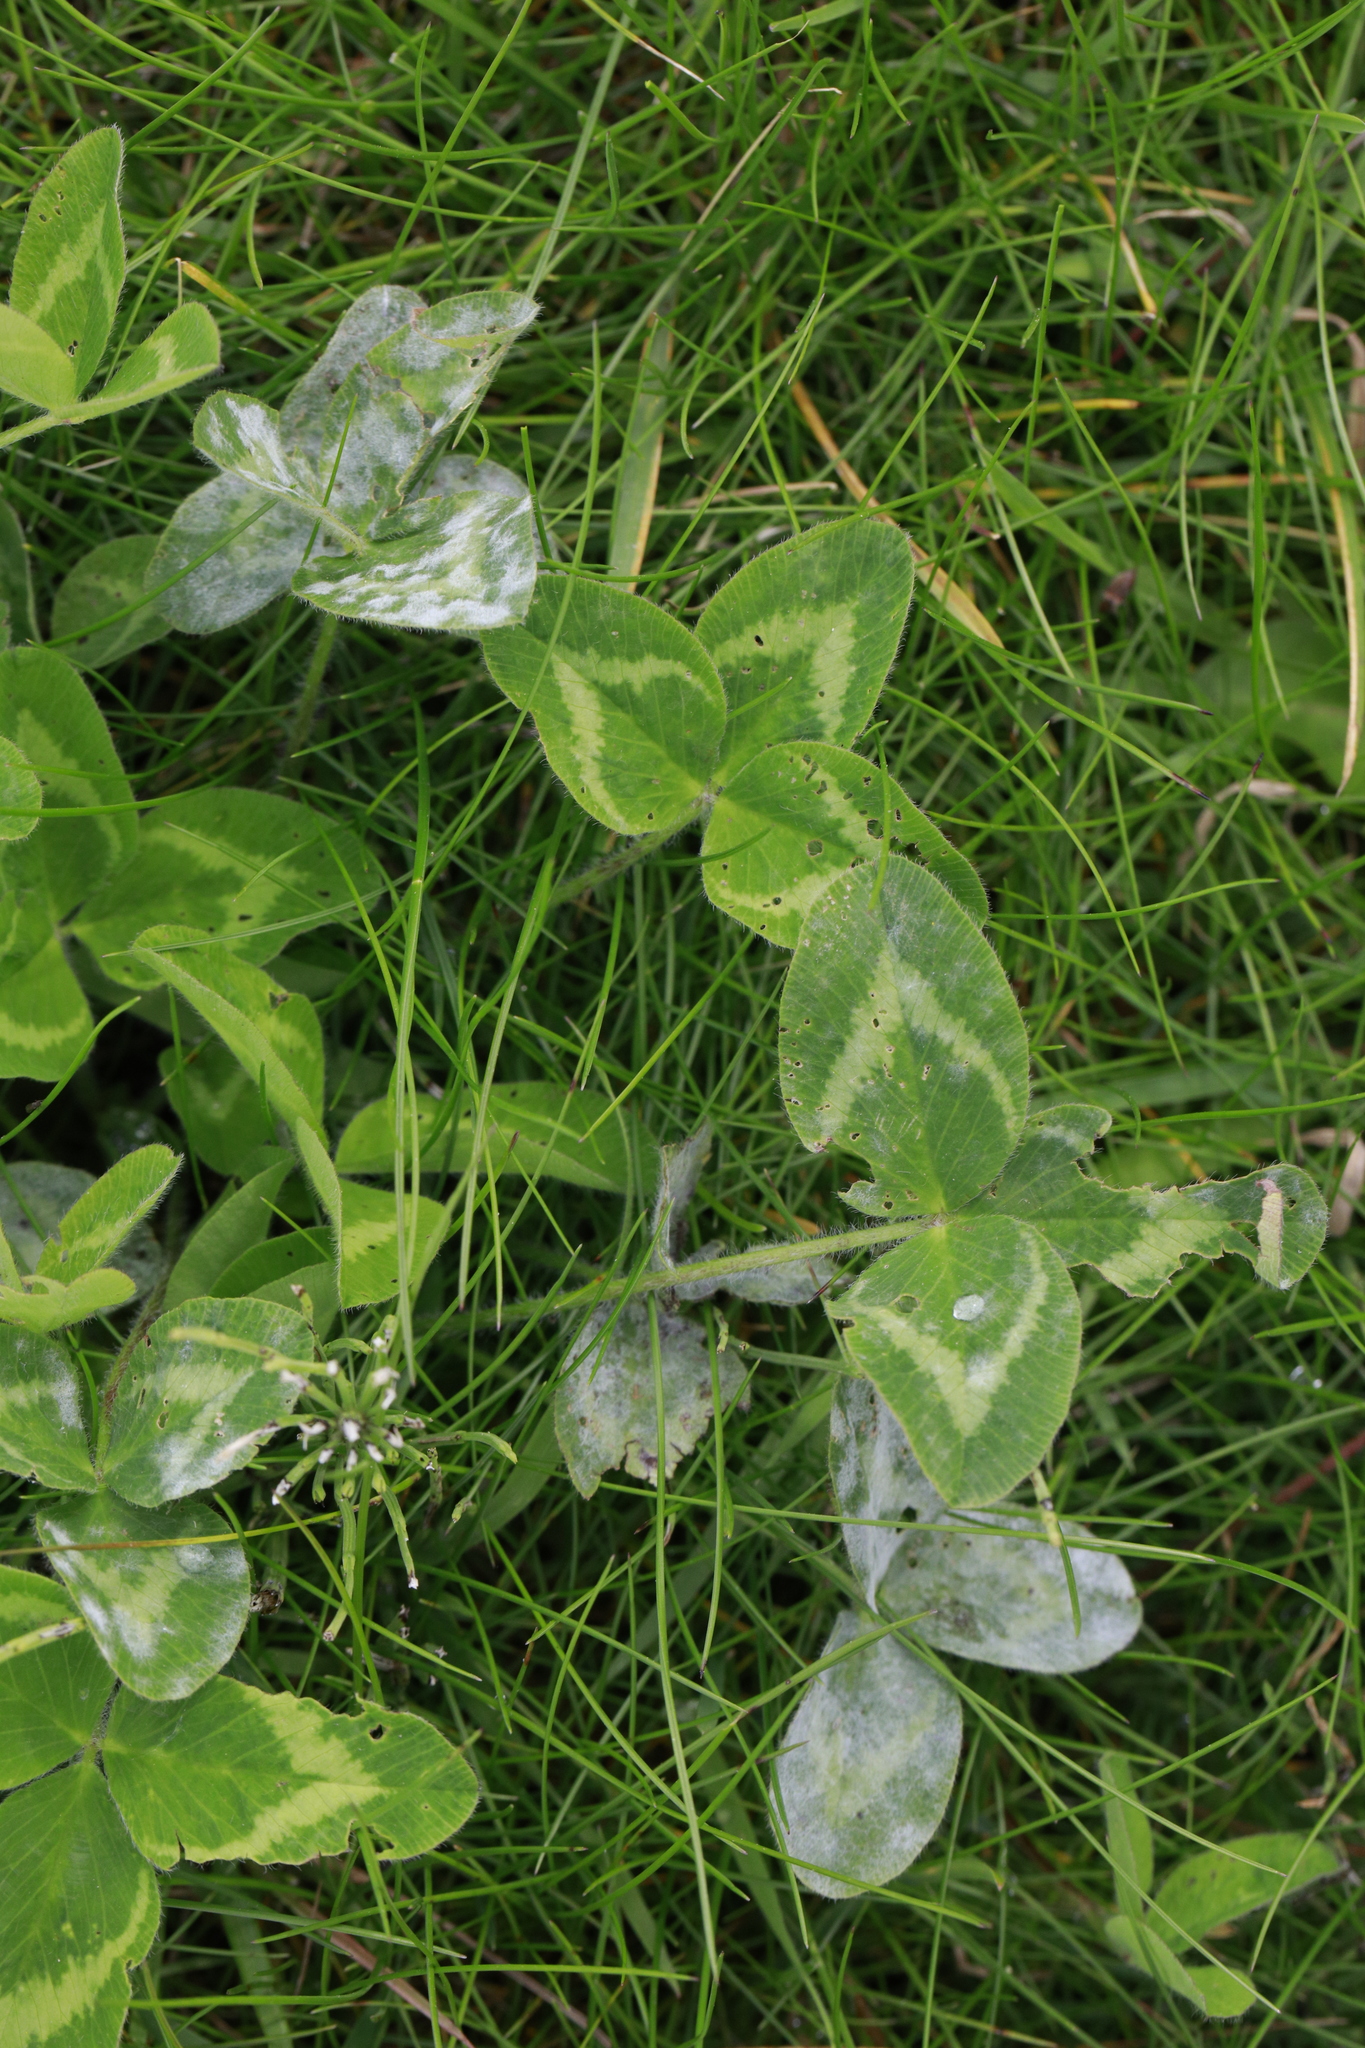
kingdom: Plantae
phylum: Tracheophyta
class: Magnoliopsida
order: Fabales
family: Fabaceae
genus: Trifolium
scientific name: Trifolium pratense
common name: Red clover
